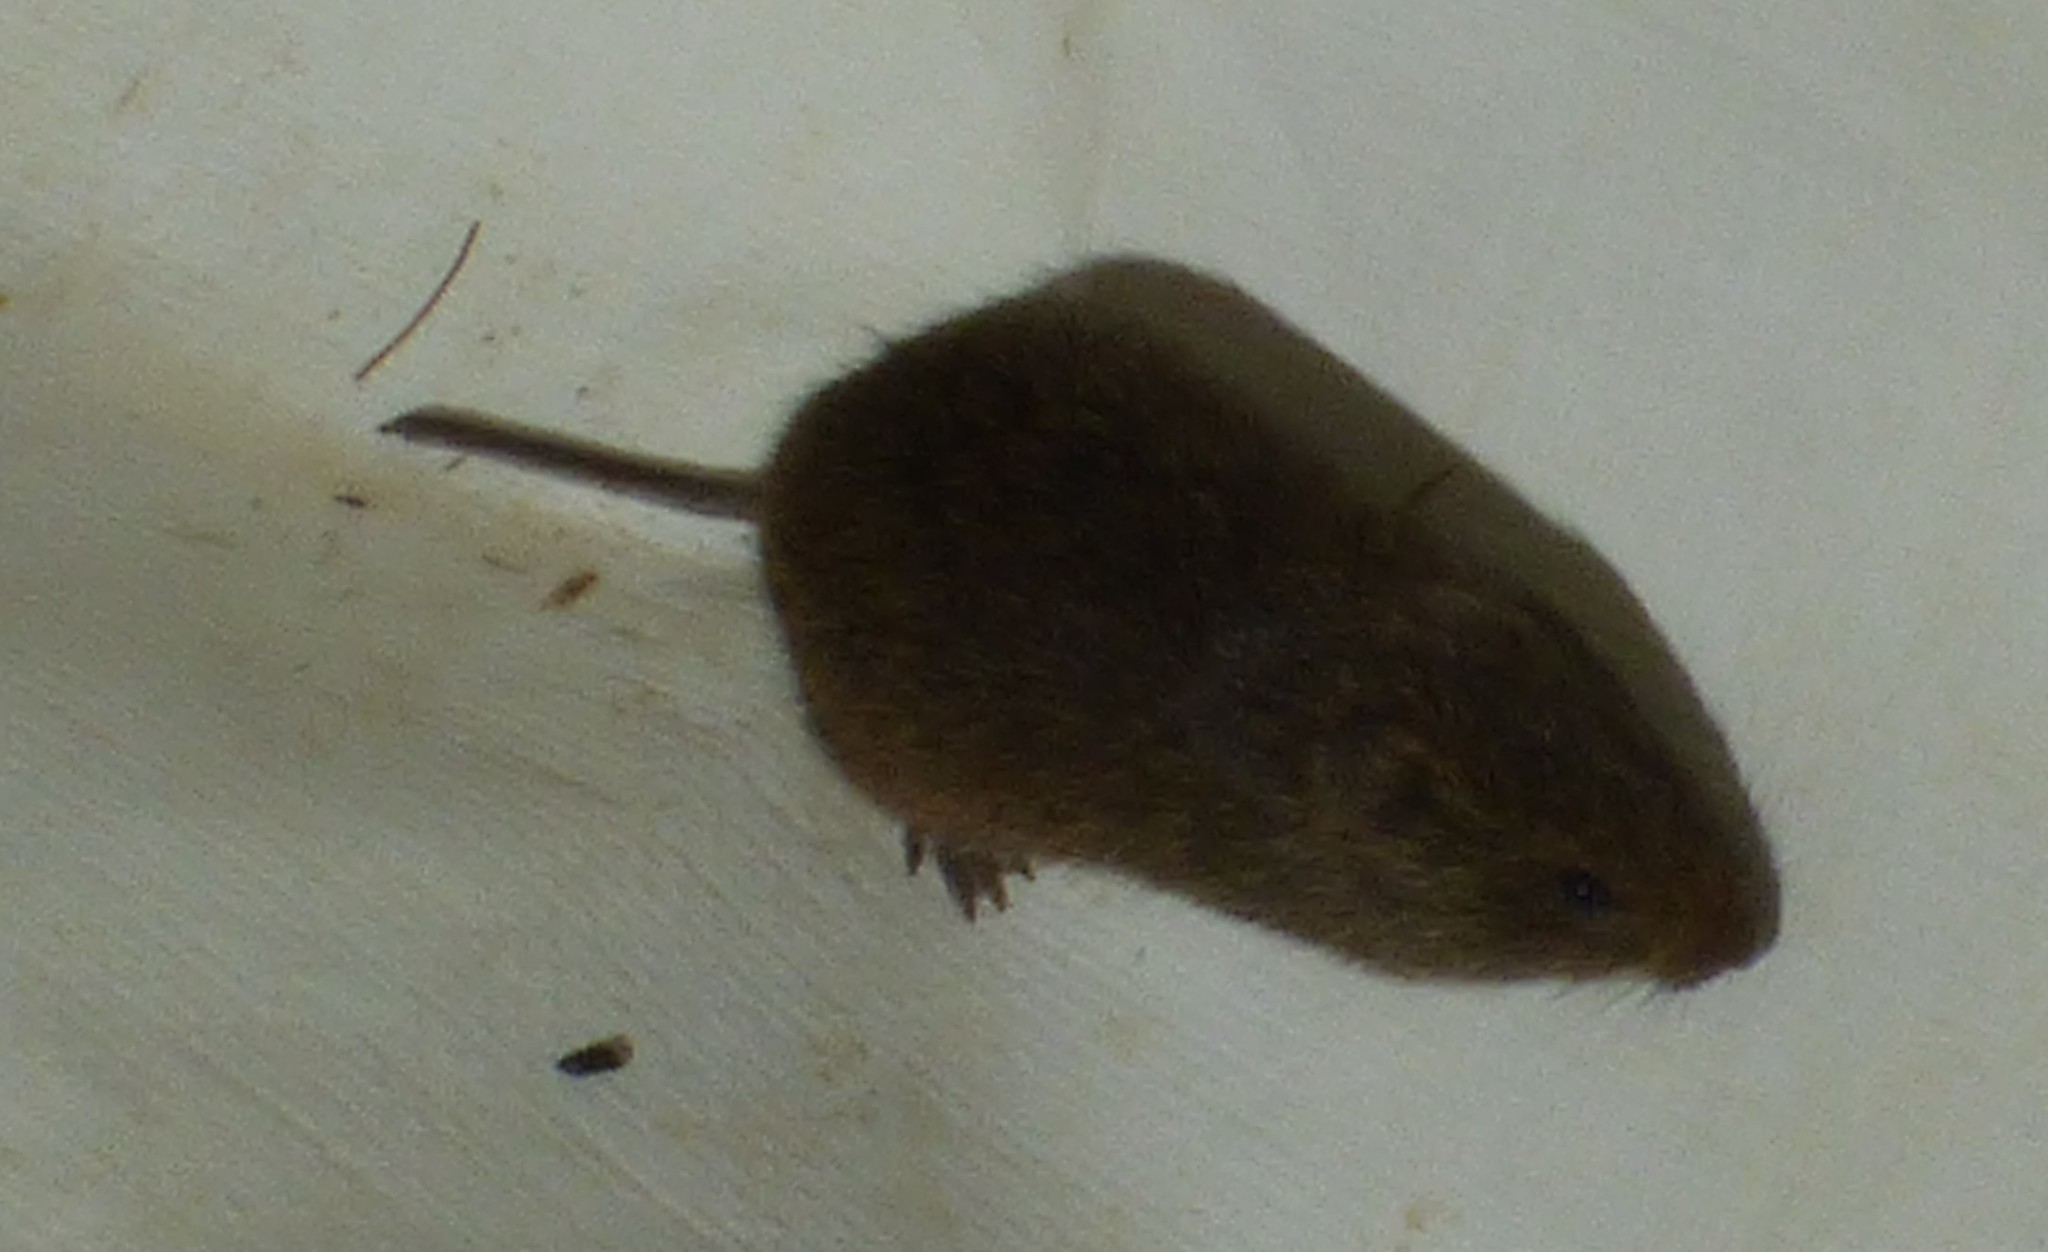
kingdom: Animalia
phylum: Chordata
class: Mammalia
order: Rodentia
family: Cricetidae
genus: Microtus
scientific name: Microtus pennsylvanicus
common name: Meadow vole
